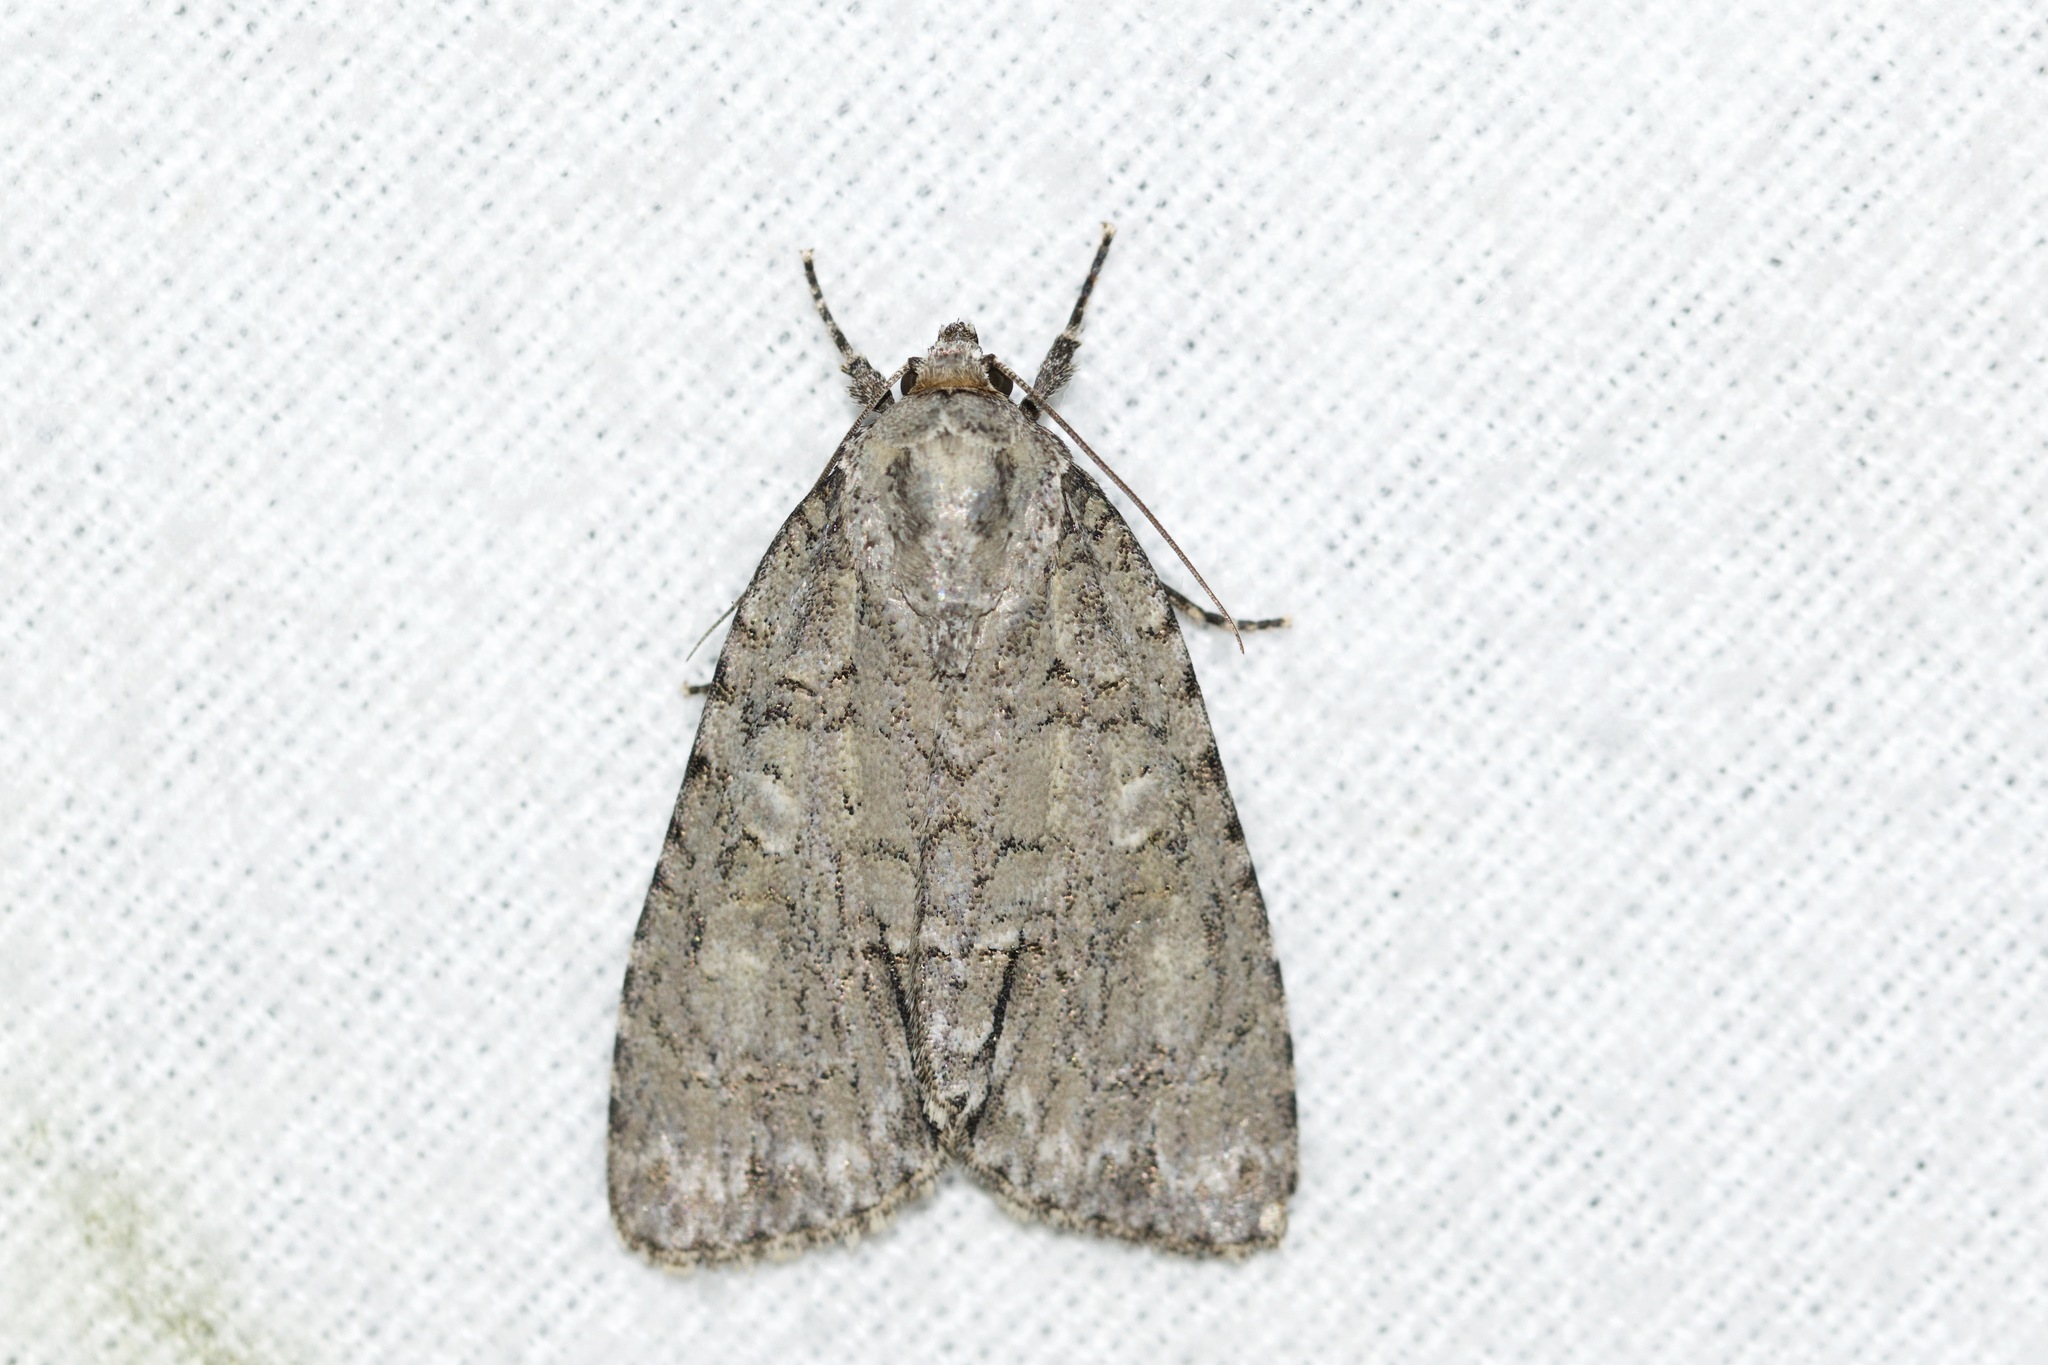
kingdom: Animalia
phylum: Arthropoda
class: Insecta
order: Lepidoptera
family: Noctuidae
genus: Acronicta
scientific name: Acronicta
